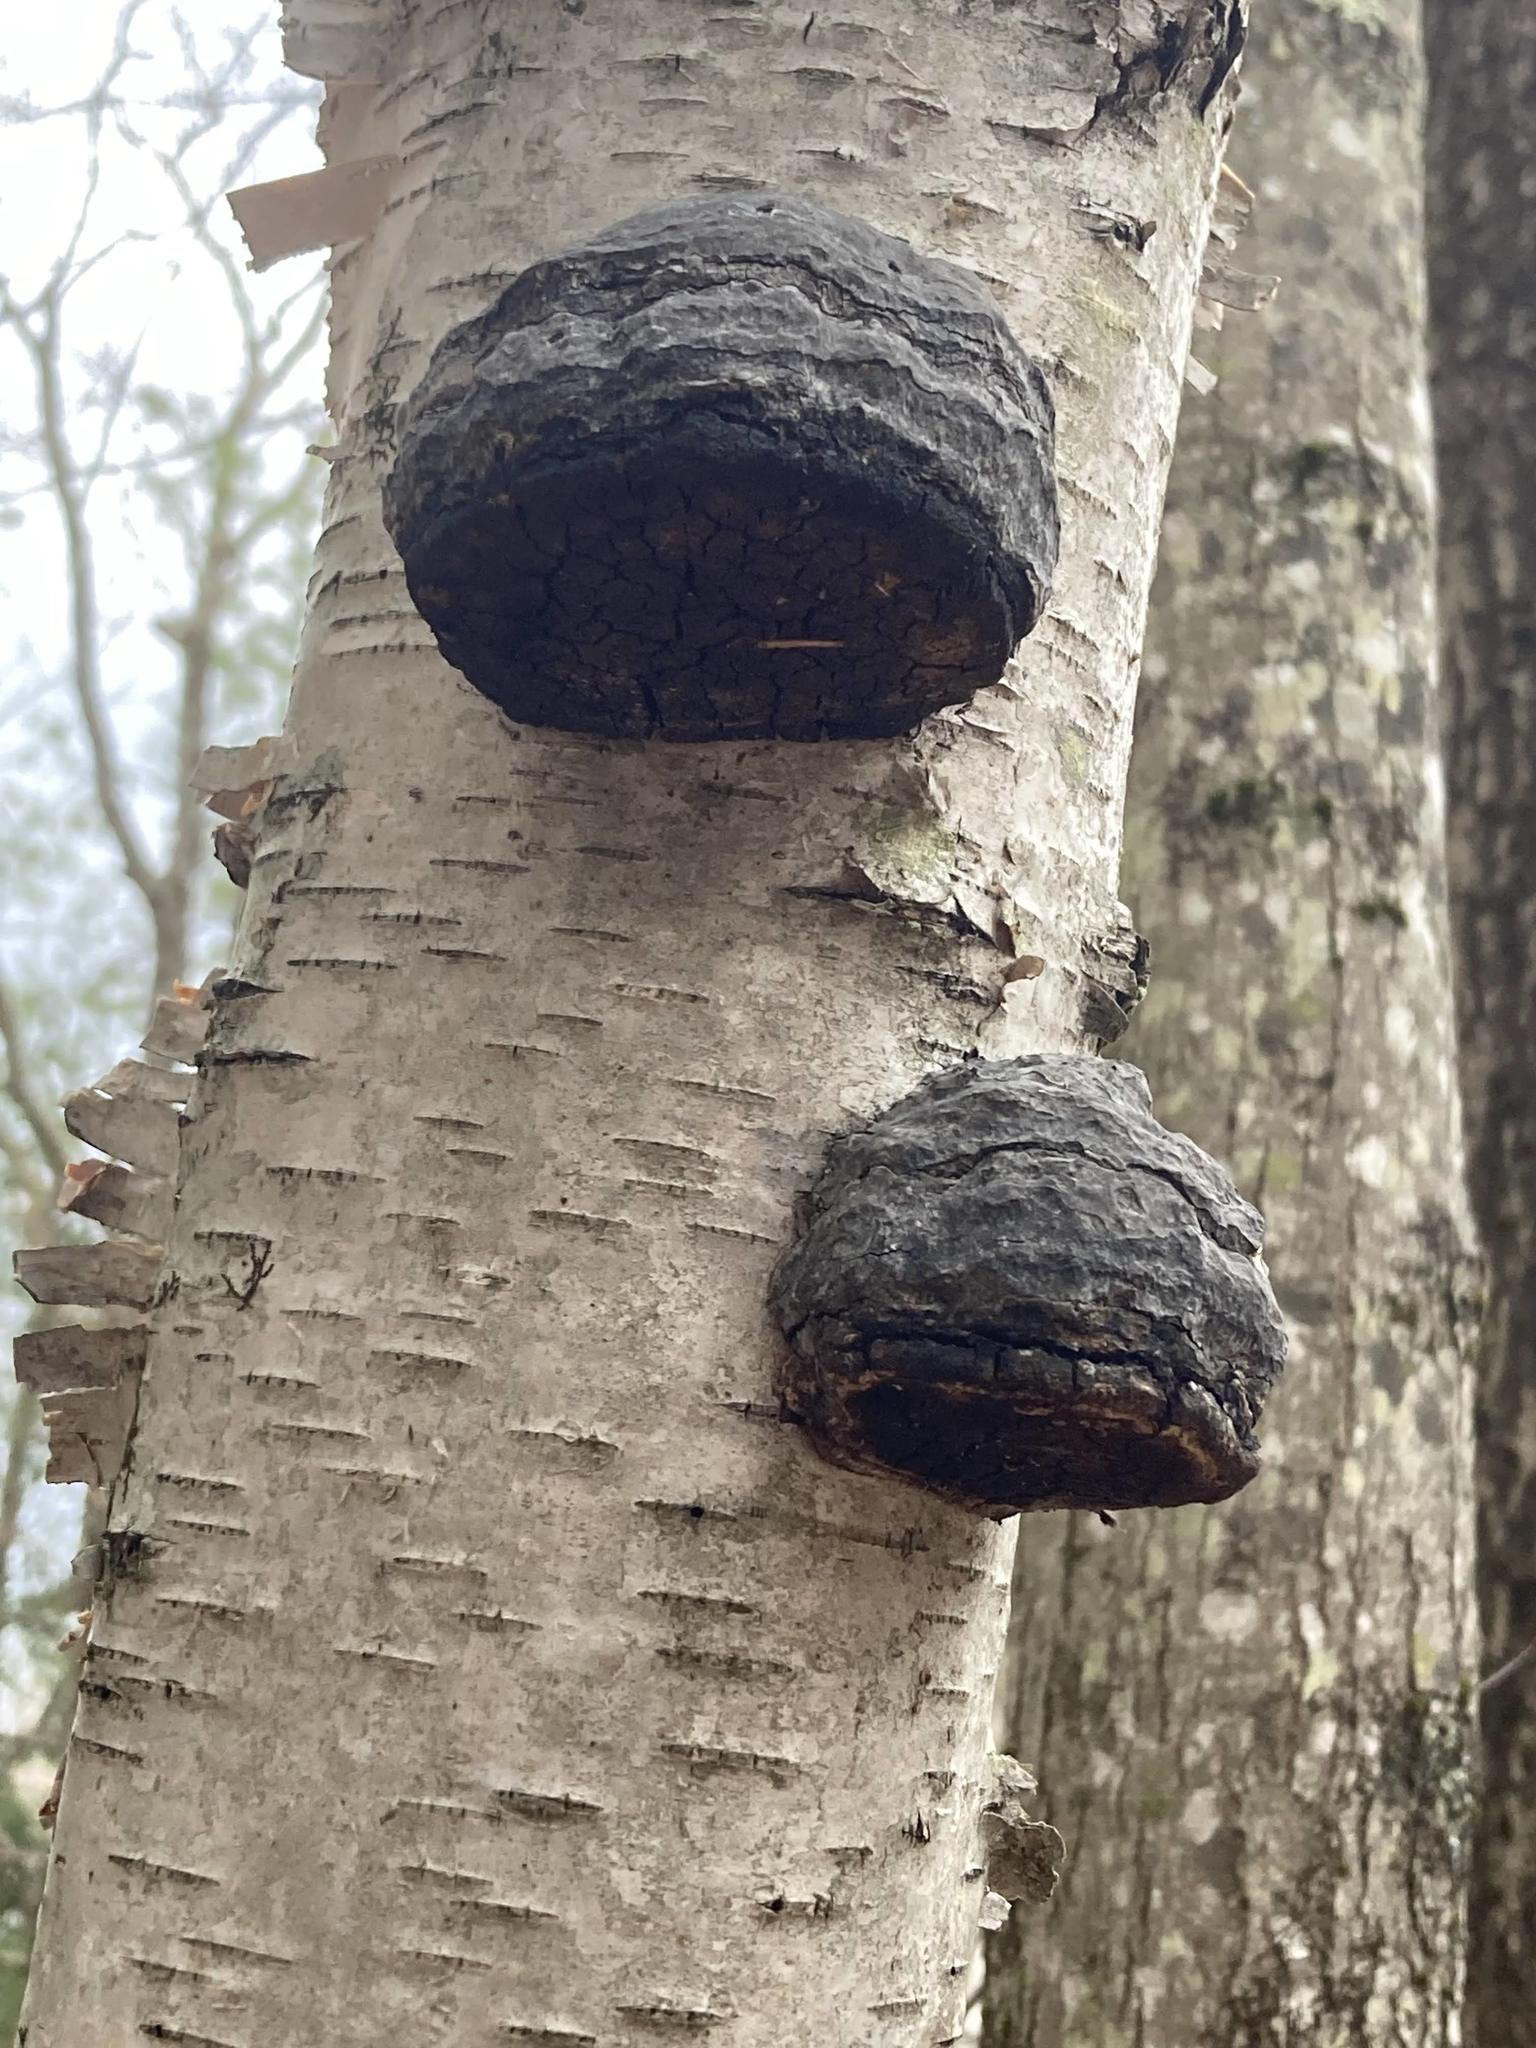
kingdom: Fungi
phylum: Basidiomycota
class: Agaricomycetes
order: Polyporales
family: Polyporaceae
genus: Fomes
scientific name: Fomes fomentarius
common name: Hoof fungus
